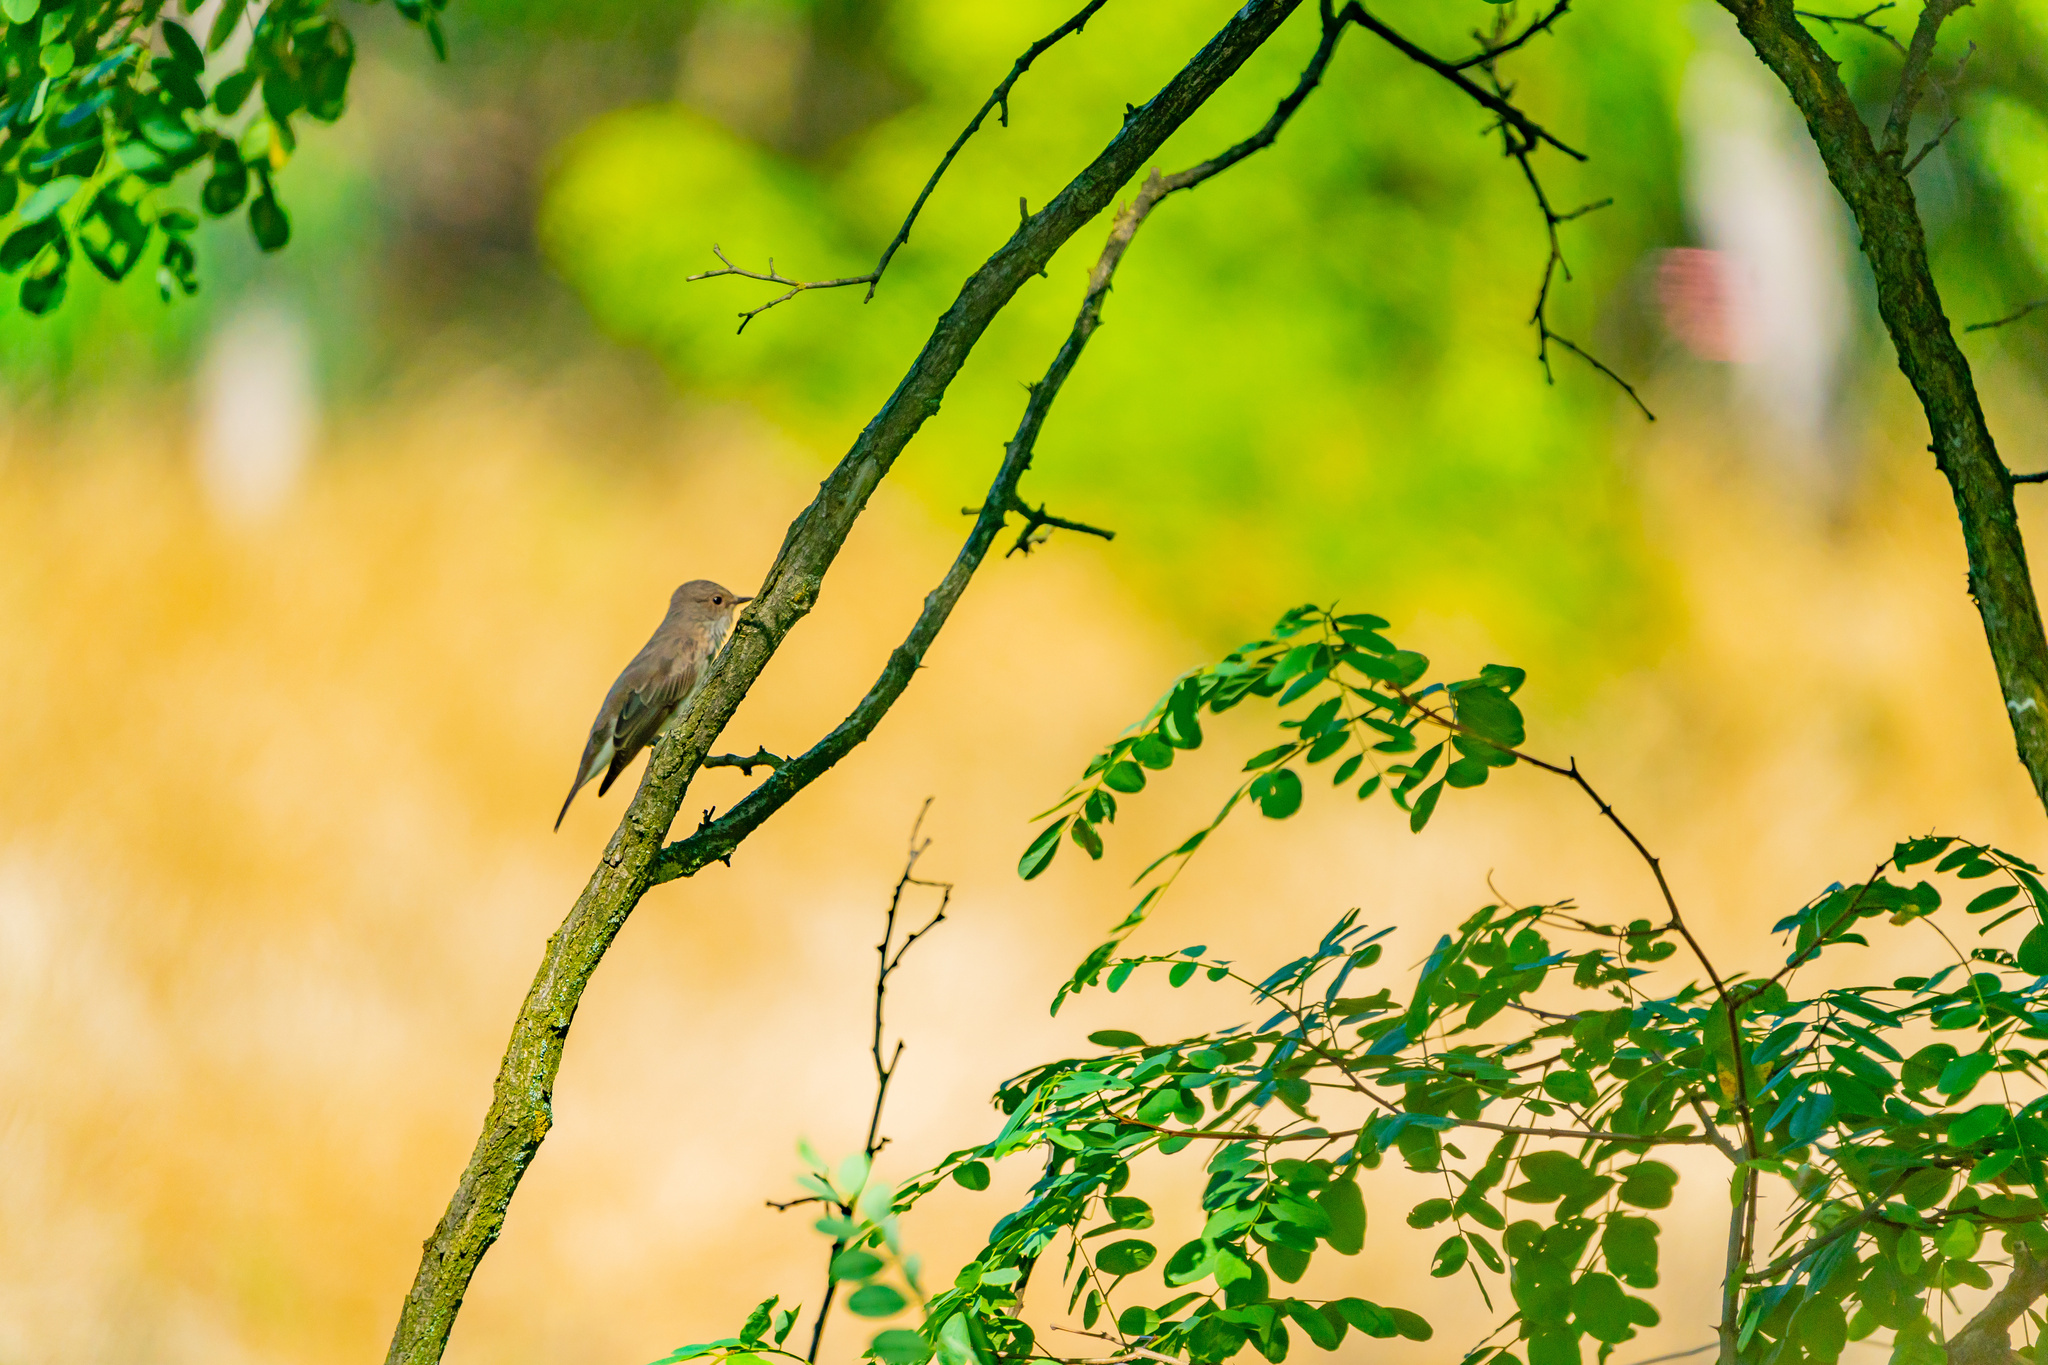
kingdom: Animalia
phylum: Chordata
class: Aves
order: Passeriformes
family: Muscicapidae
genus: Muscicapa
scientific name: Muscicapa striata
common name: Spotted flycatcher
